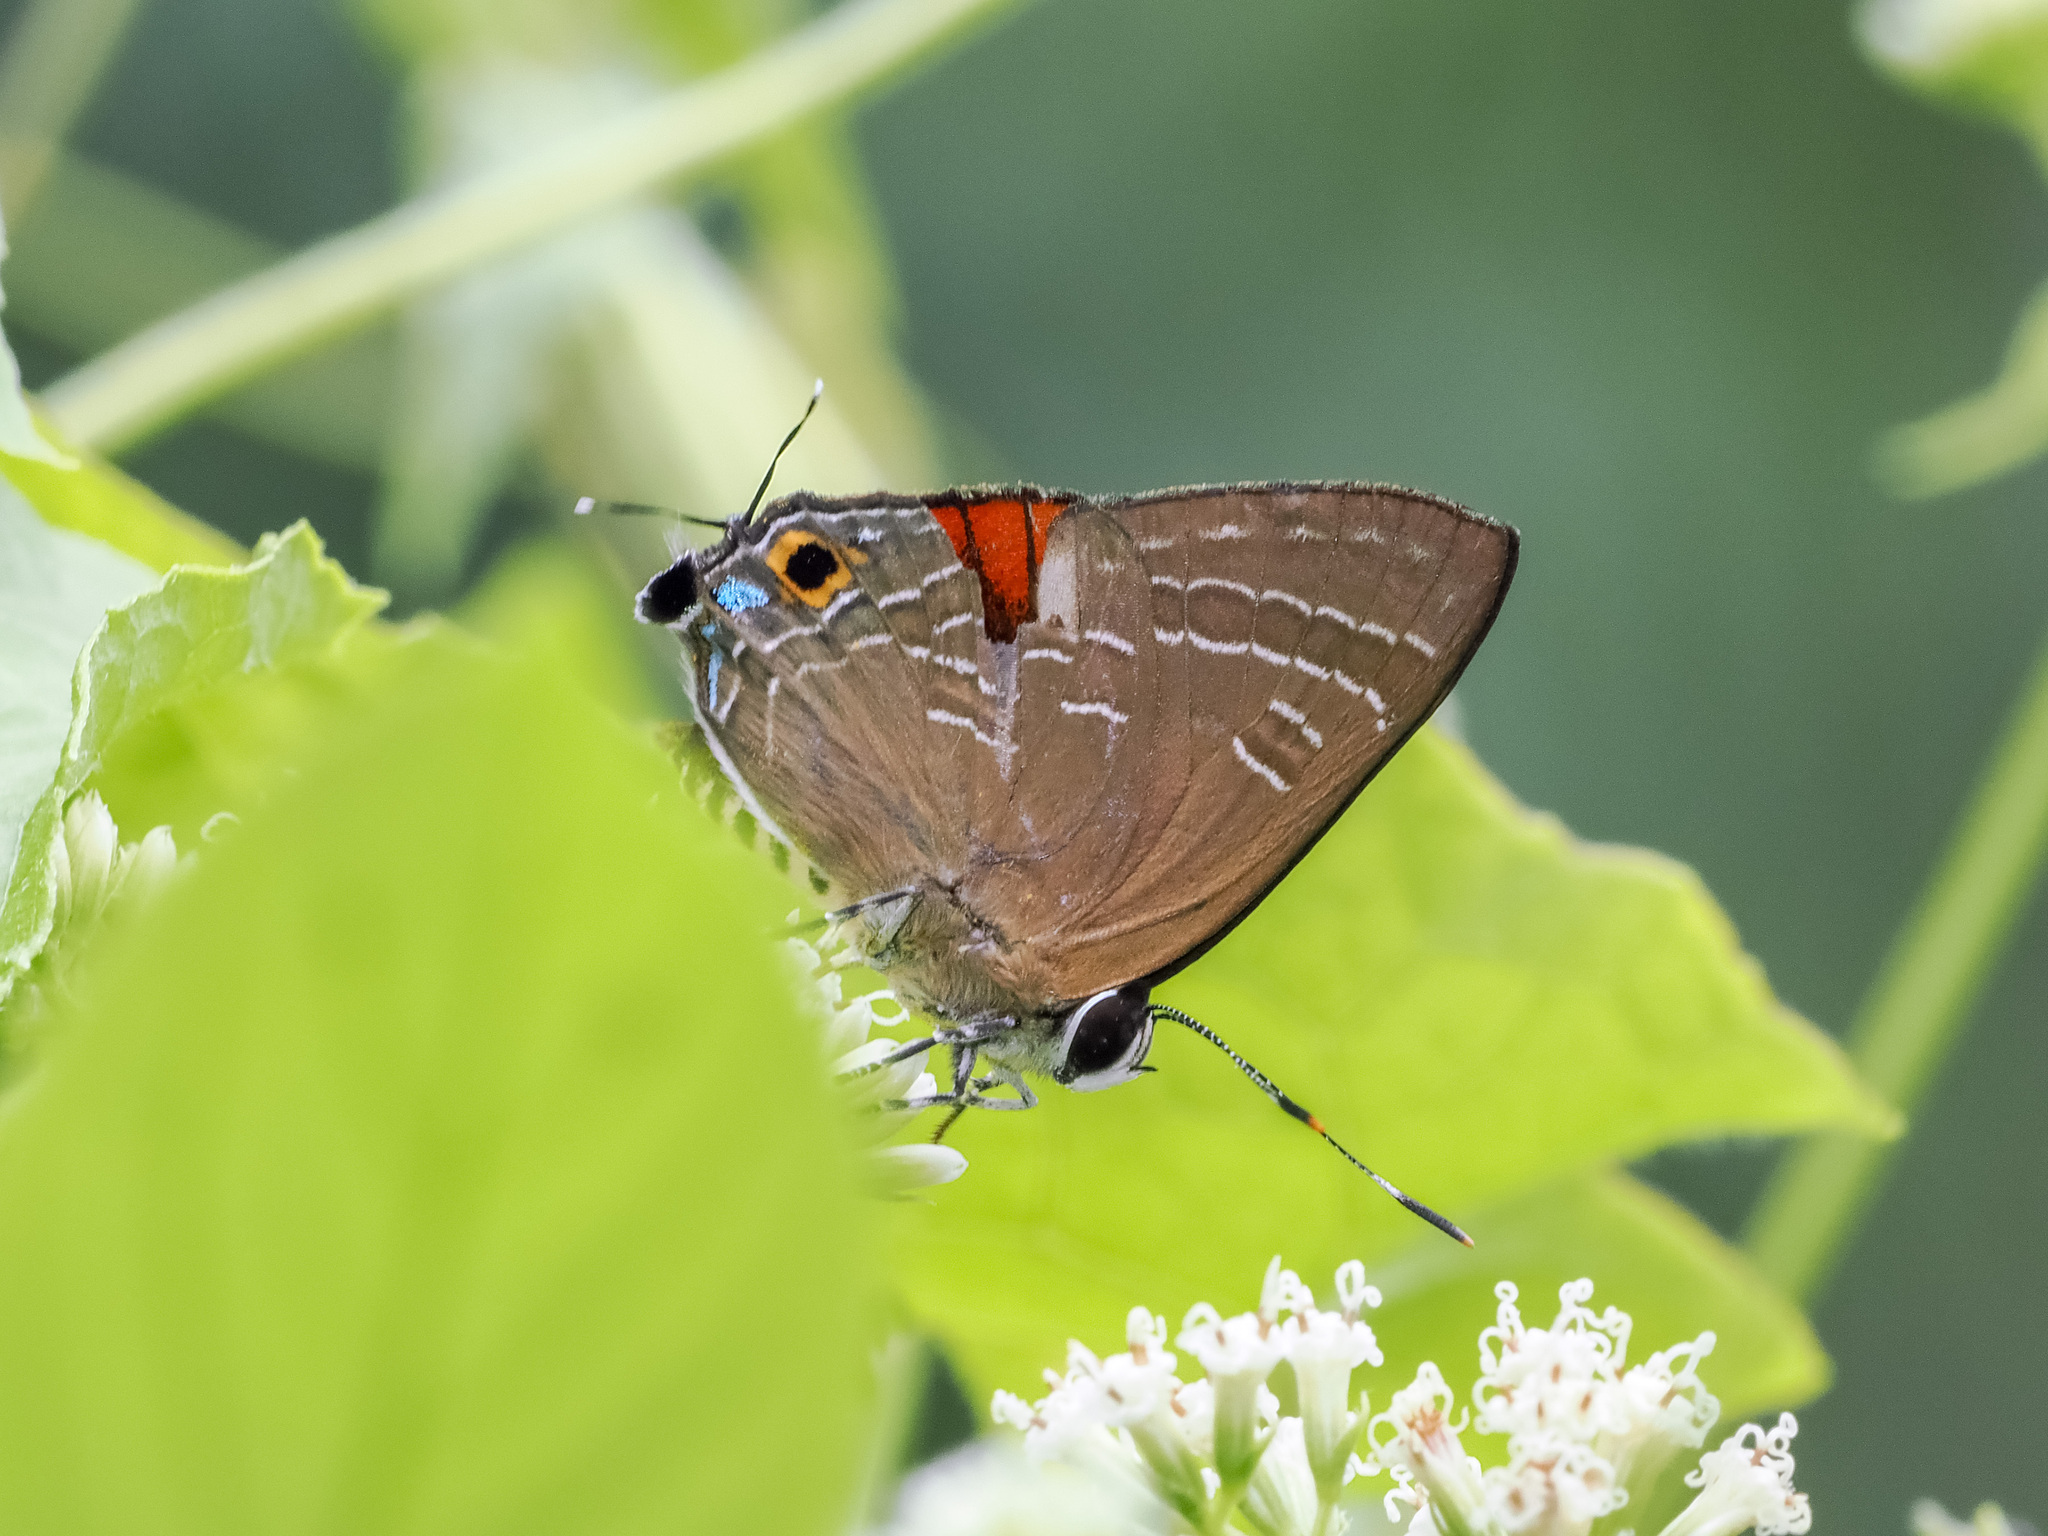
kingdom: Animalia
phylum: Arthropoda
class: Insecta
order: Lepidoptera
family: Lycaenidae
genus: Deudorix
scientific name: Deudorix epijarbas
